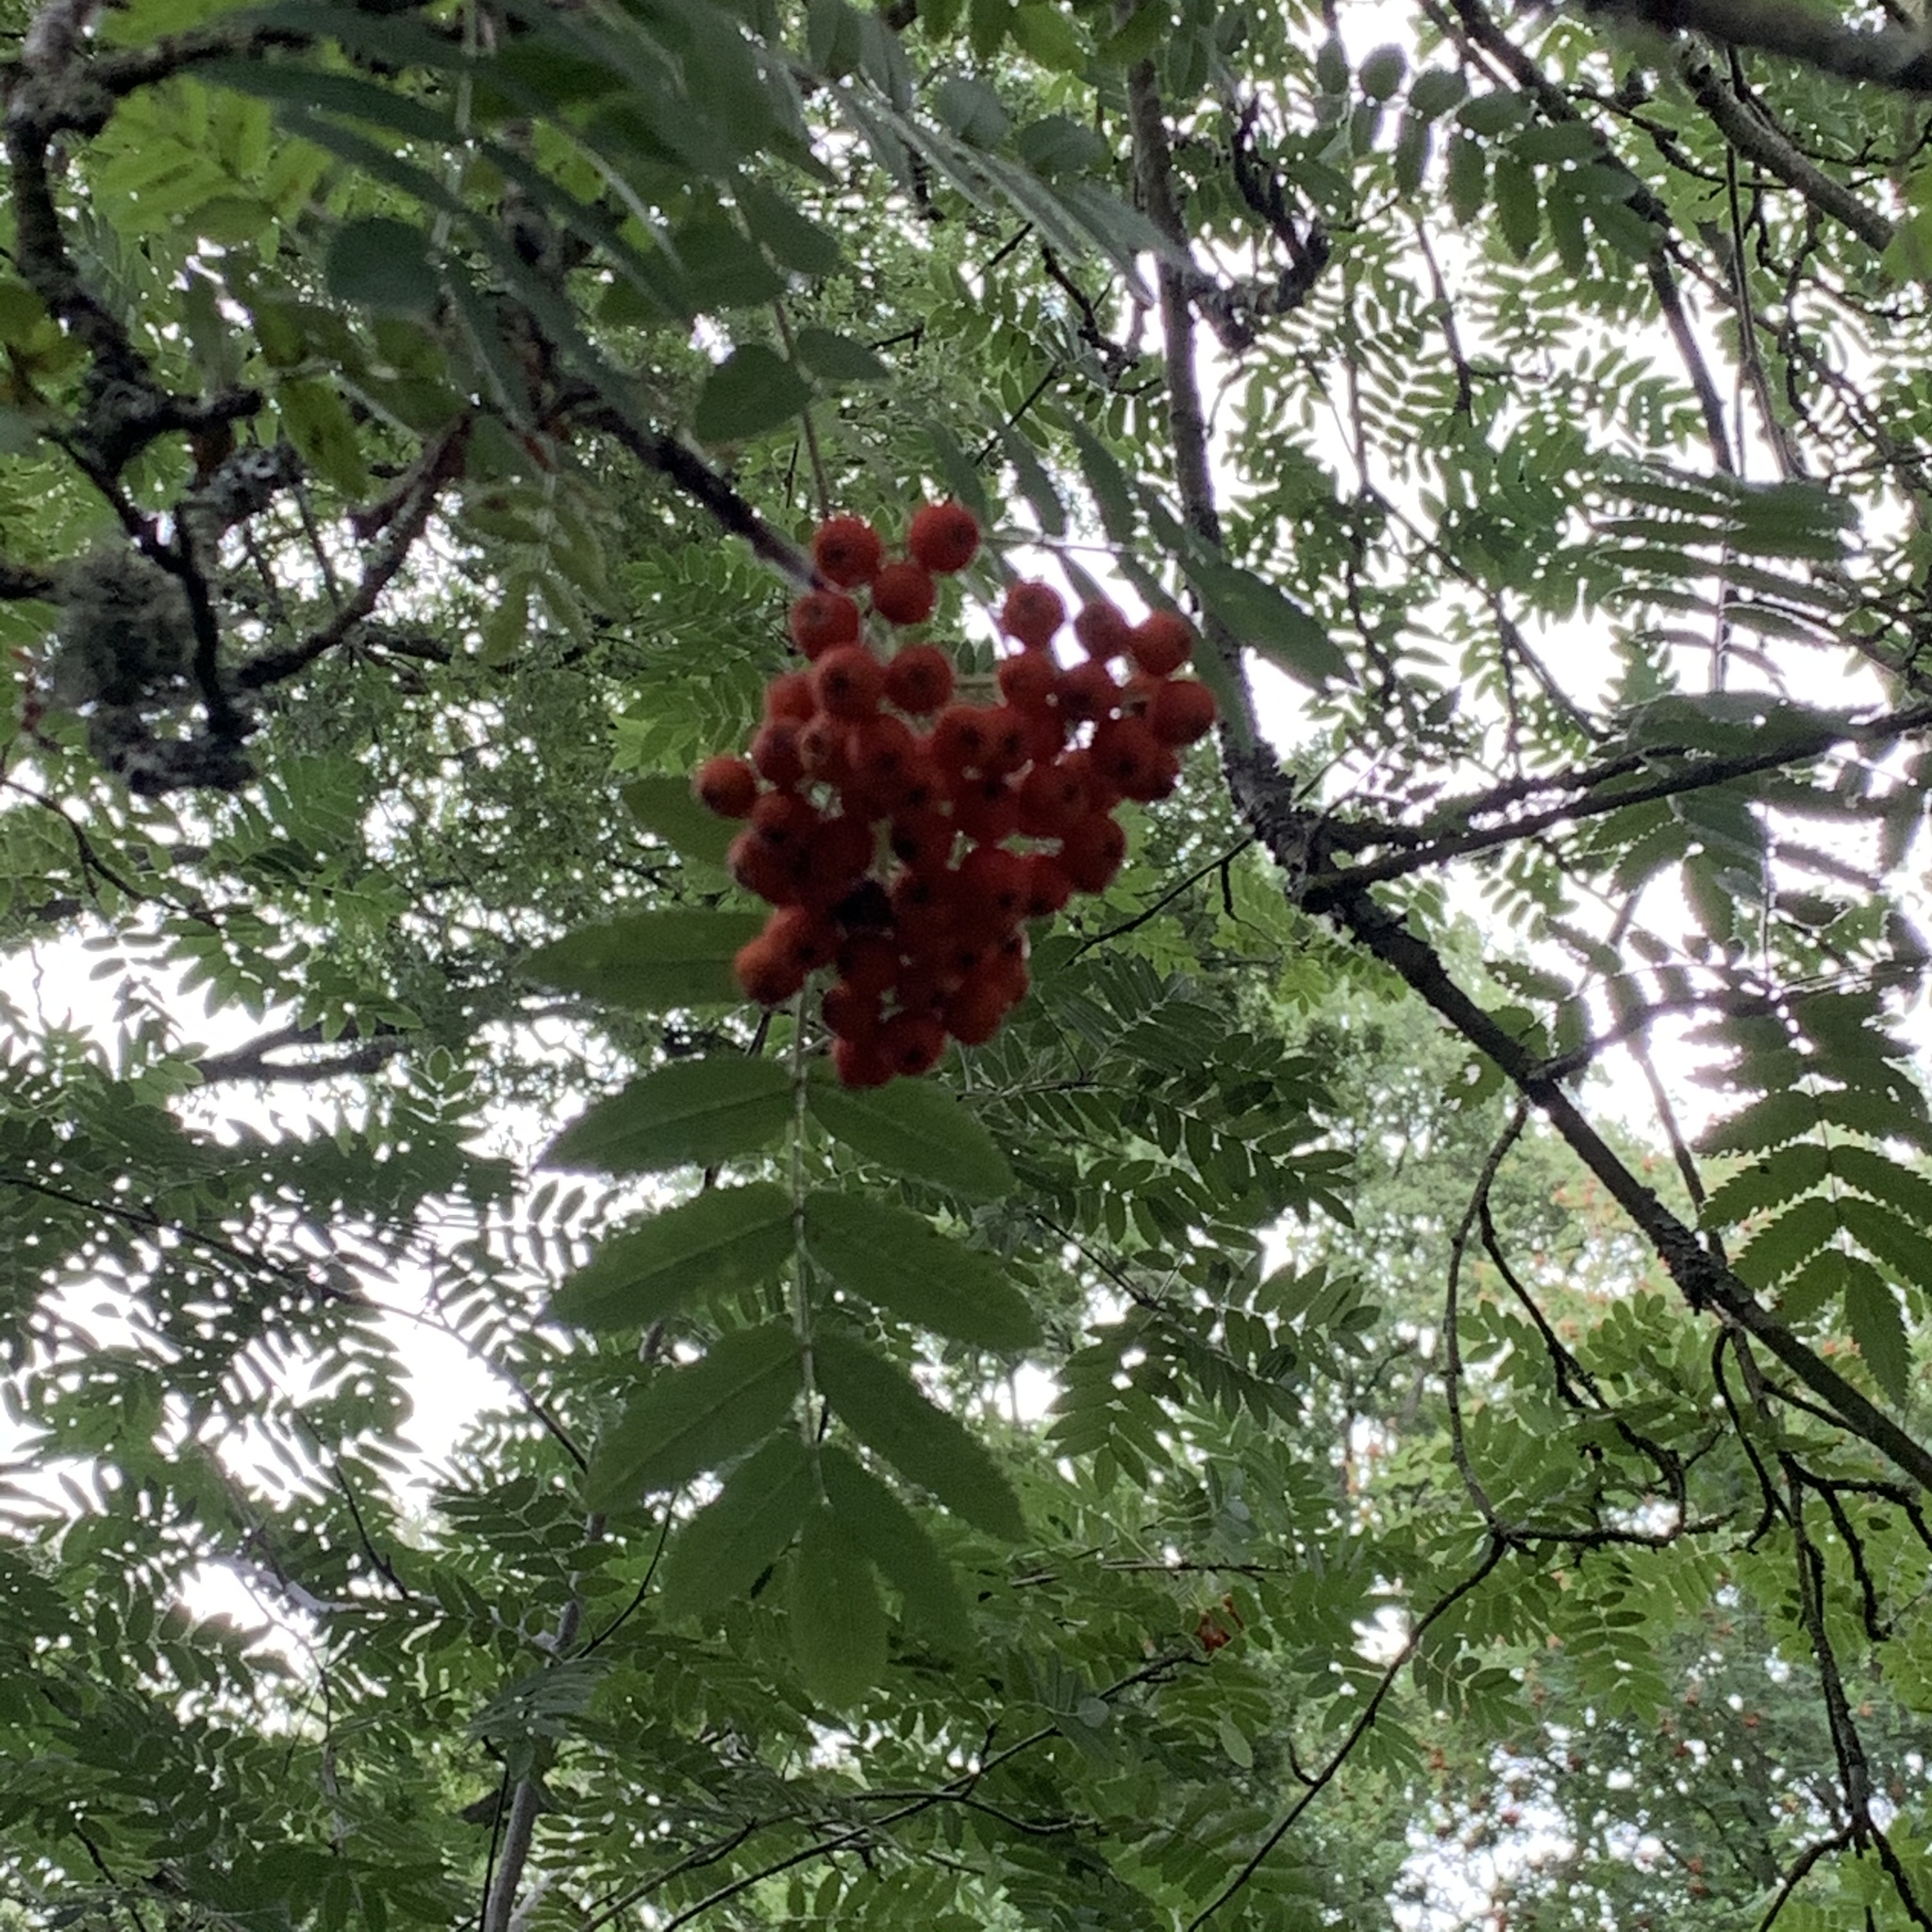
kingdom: Plantae
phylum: Tracheophyta
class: Magnoliopsida
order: Rosales
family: Rosaceae
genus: Sorbus
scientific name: Sorbus aucuparia
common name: Rowan
